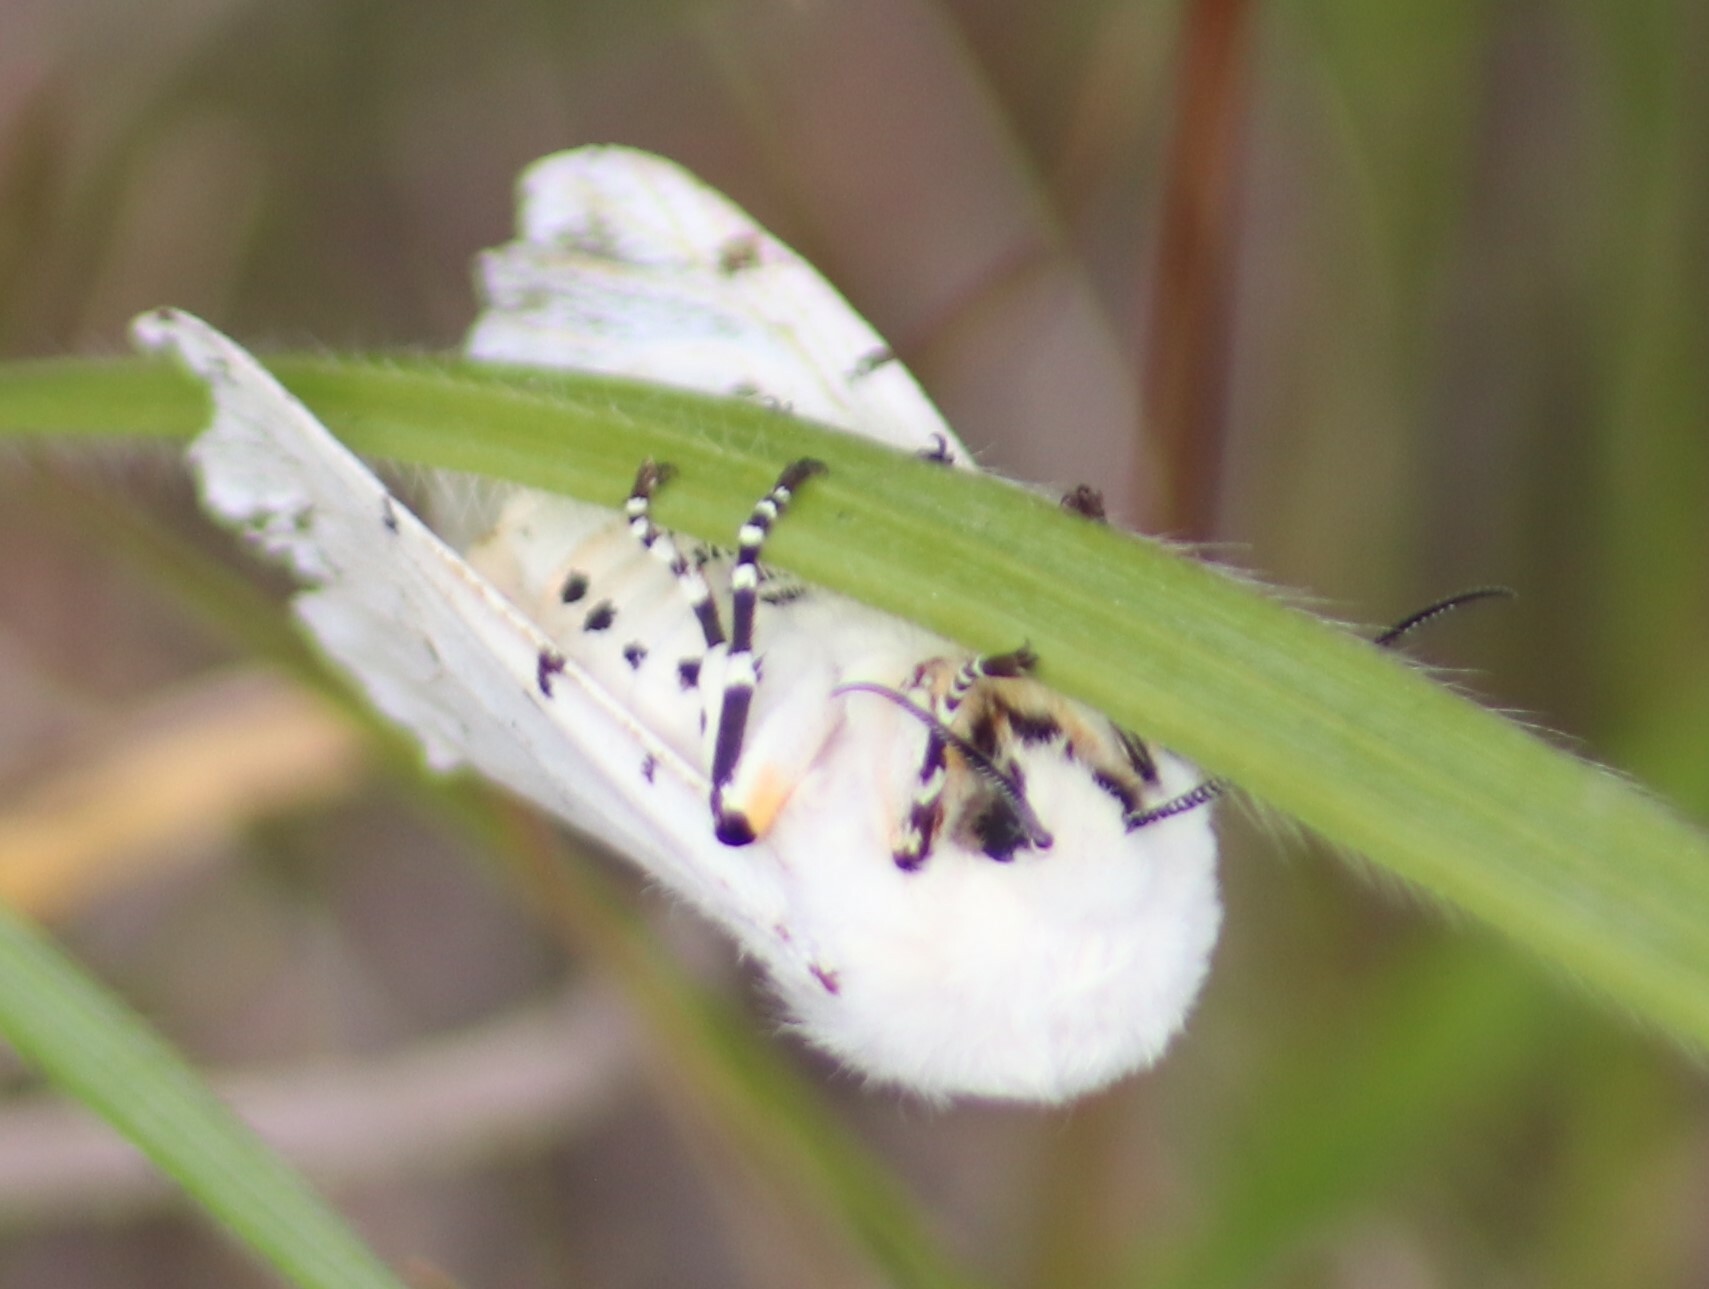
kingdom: Animalia
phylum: Arthropoda
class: Insecta
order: Lepidoptera
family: Erebidae
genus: Estigmene
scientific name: Estigmene acrea
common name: Salt marsh moth
